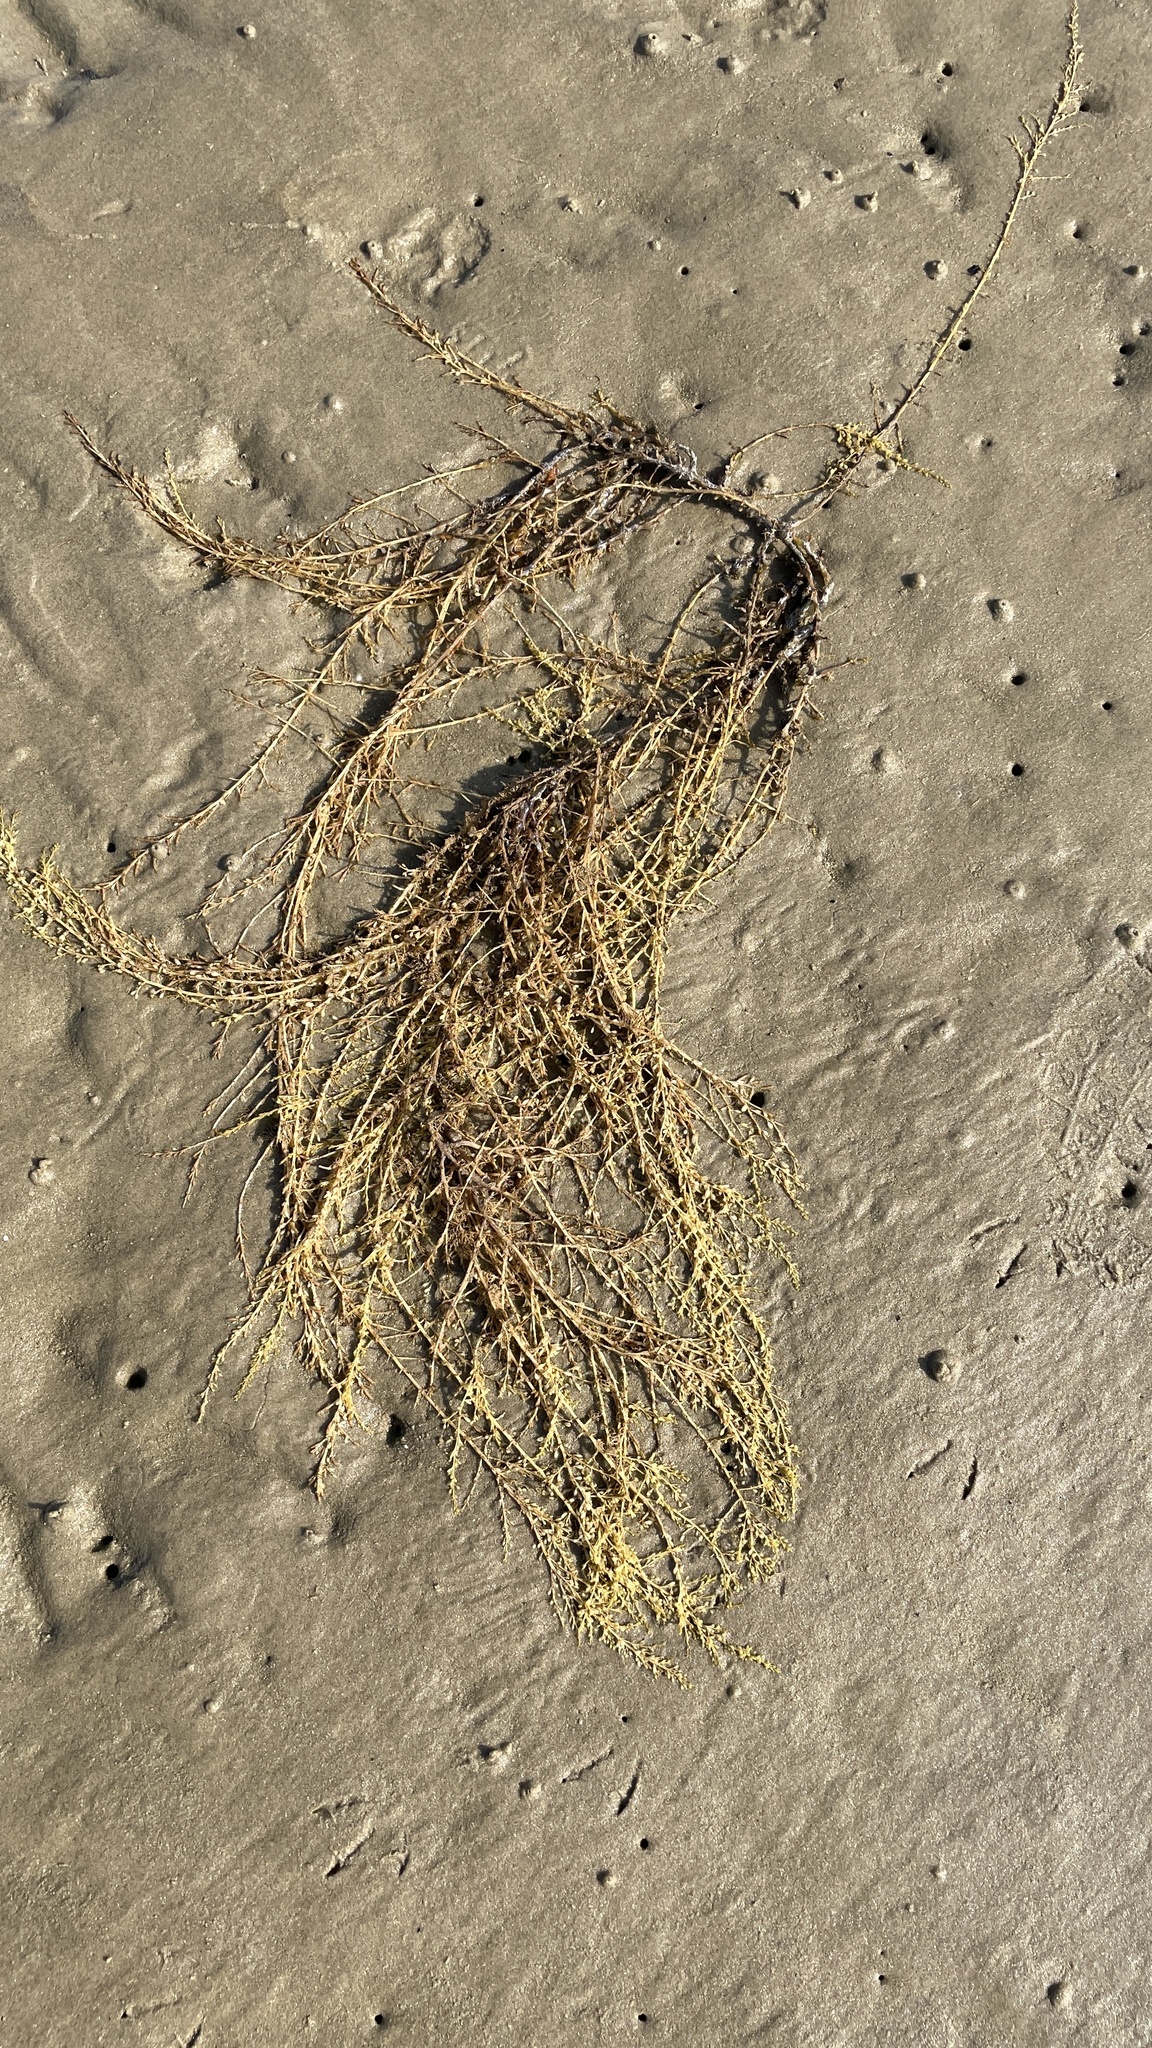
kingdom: Chromista
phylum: Ochrophyta
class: Phaeophyceae
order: Fucales
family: Sargassaceae
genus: Sargassum
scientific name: Sargassum muticum
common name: Japweed
